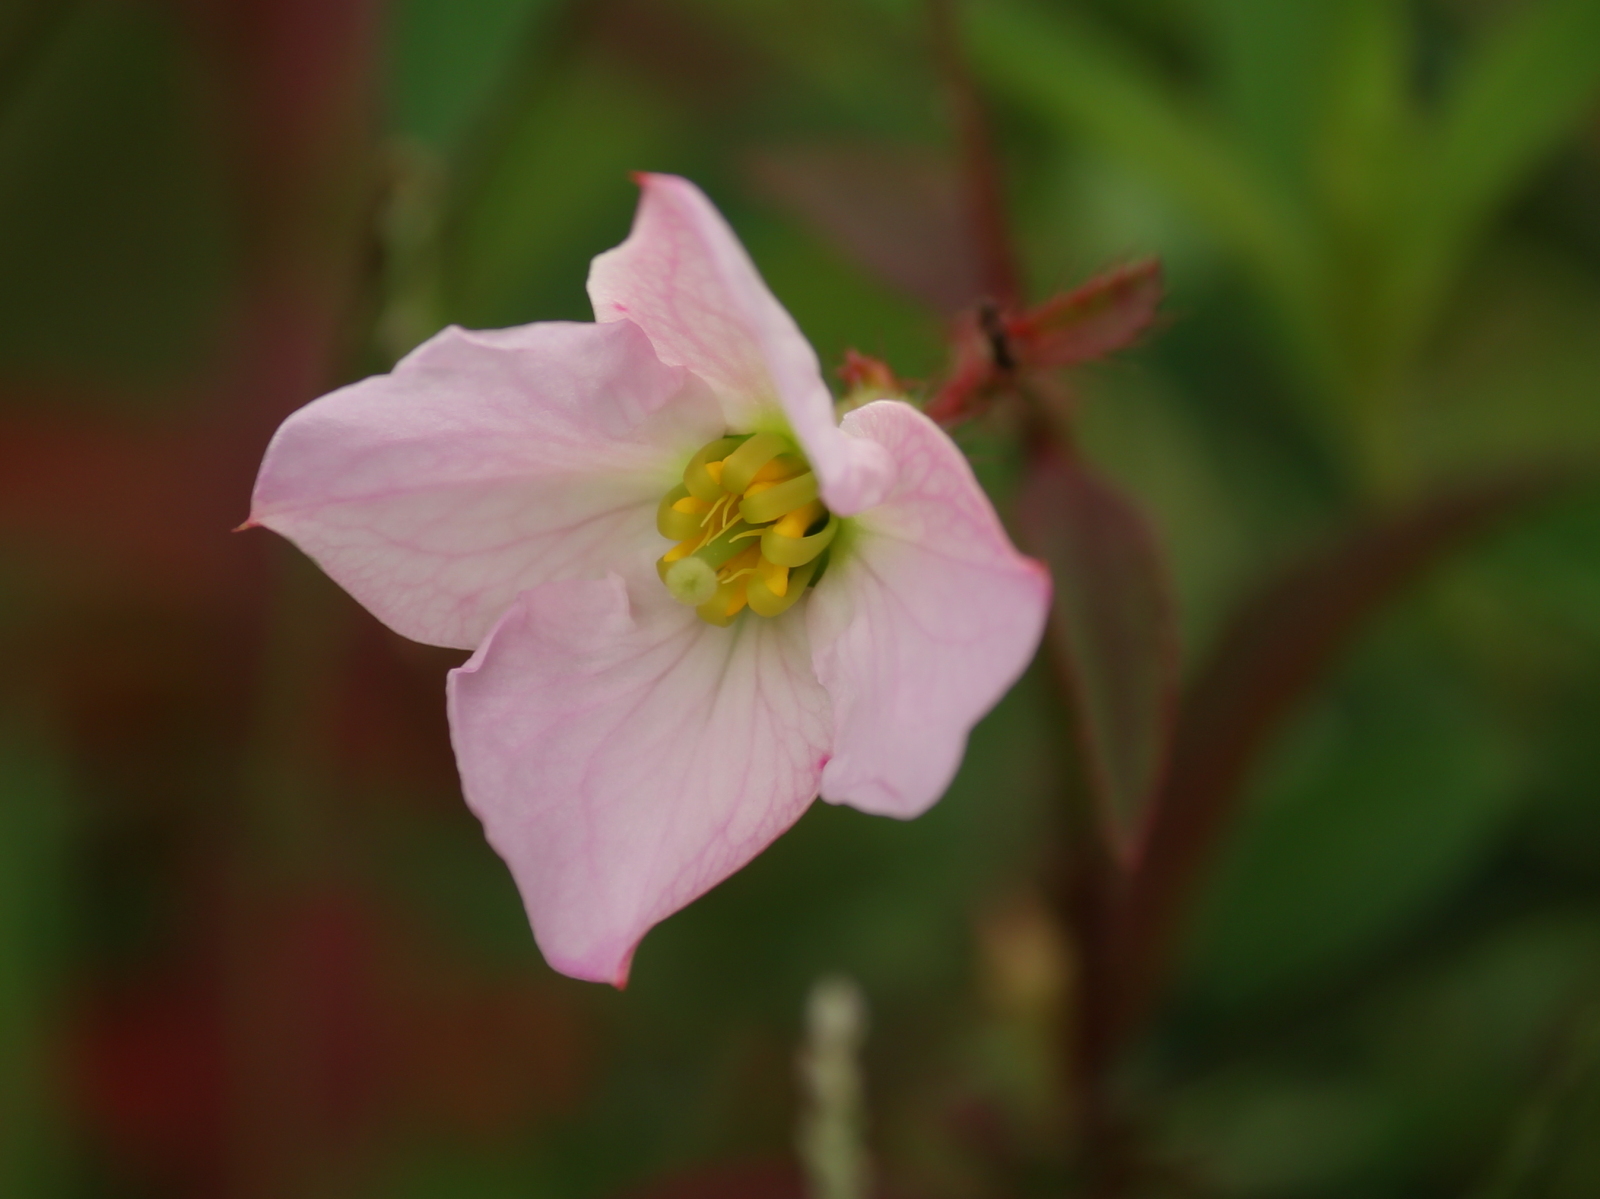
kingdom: Plantae
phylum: Tracheophyta
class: Magnoliopsida
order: Myrtales
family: Melastomataceae
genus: Rhexia
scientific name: Rhexia mariana
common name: Dull meadow-pitcher
